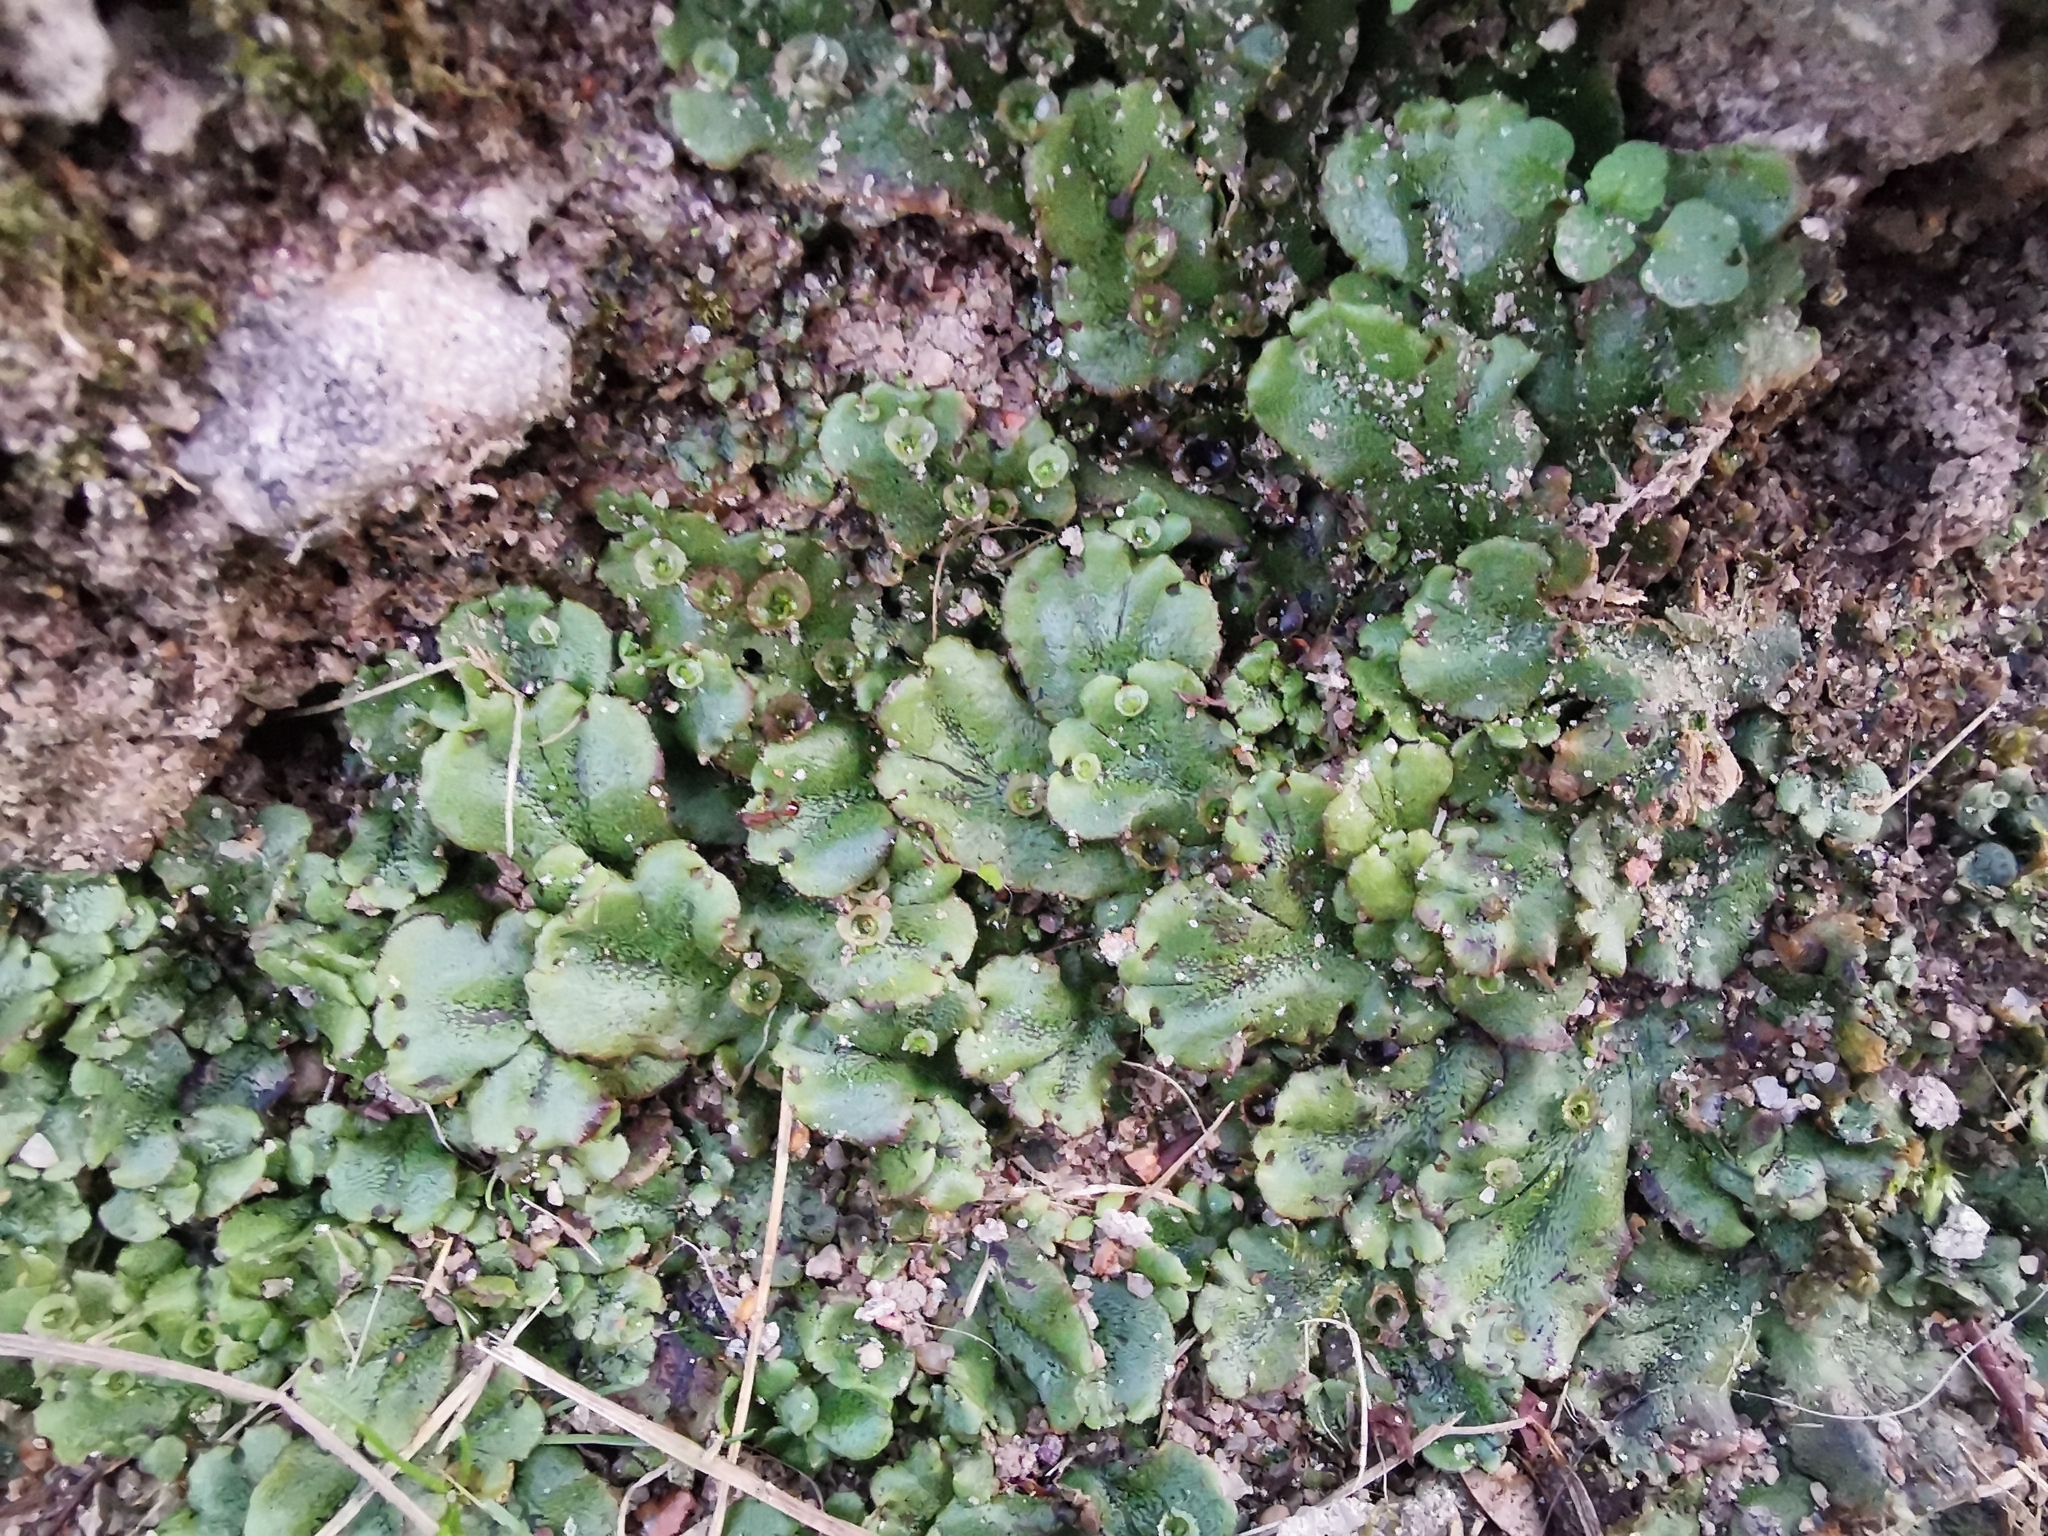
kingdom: Plantae
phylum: Marchantiophyta
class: Marchantiopsida
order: Marchantiales
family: Marchantiaceae
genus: Marchantia
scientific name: Marchantia polymorpha
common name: Common liverwort
